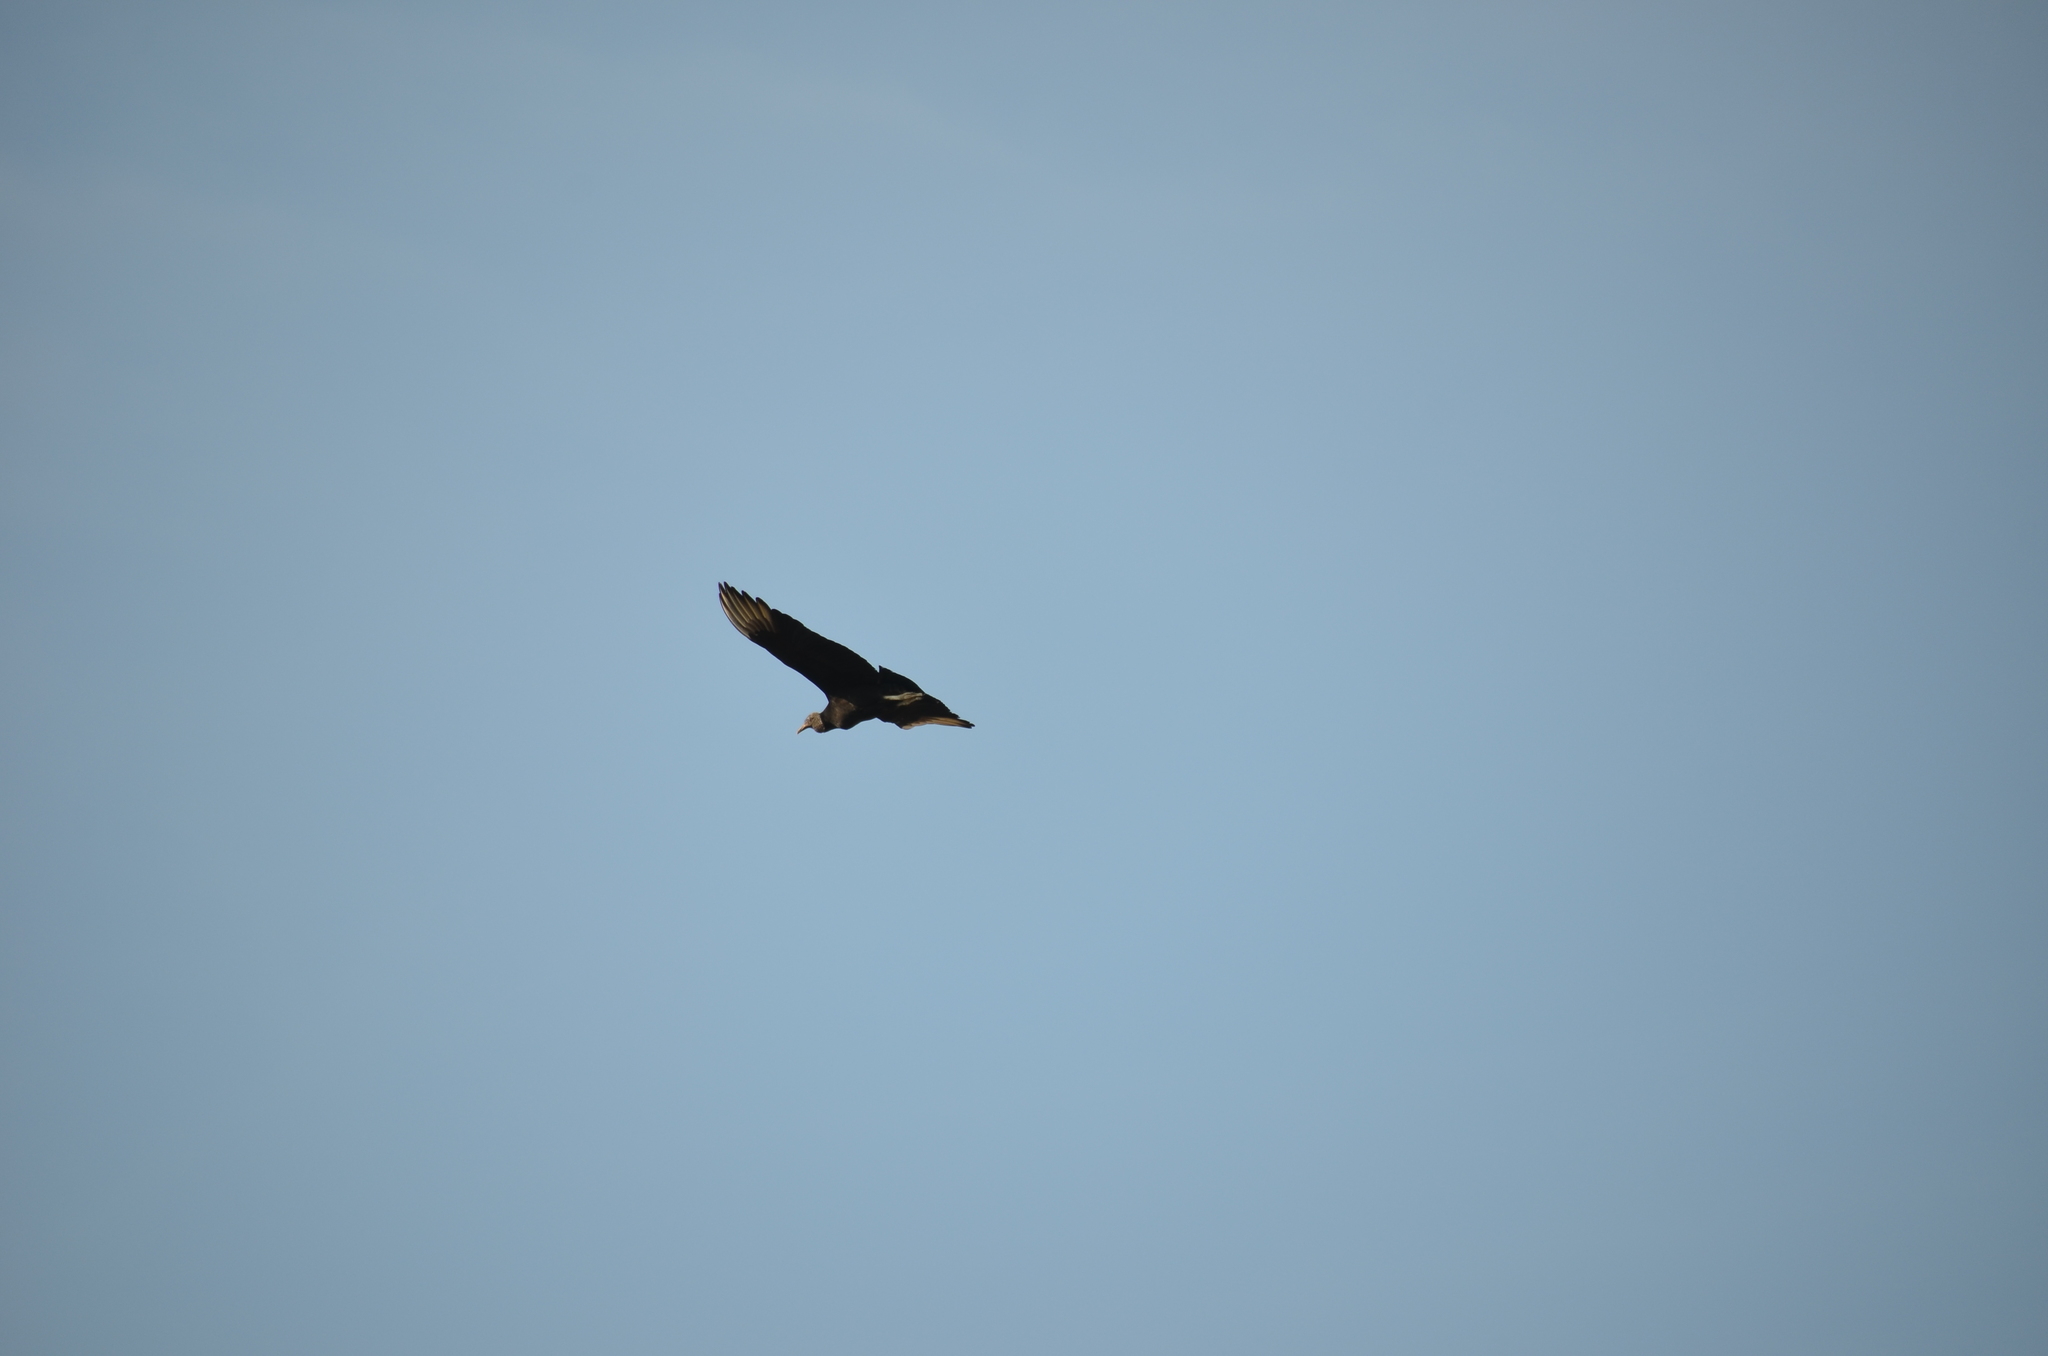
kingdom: Animalia
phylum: Chordata
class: Aves
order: Accipitriformes
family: Cathartidae
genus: Coragyps
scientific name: Coragyps atratus
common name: Black vulture
